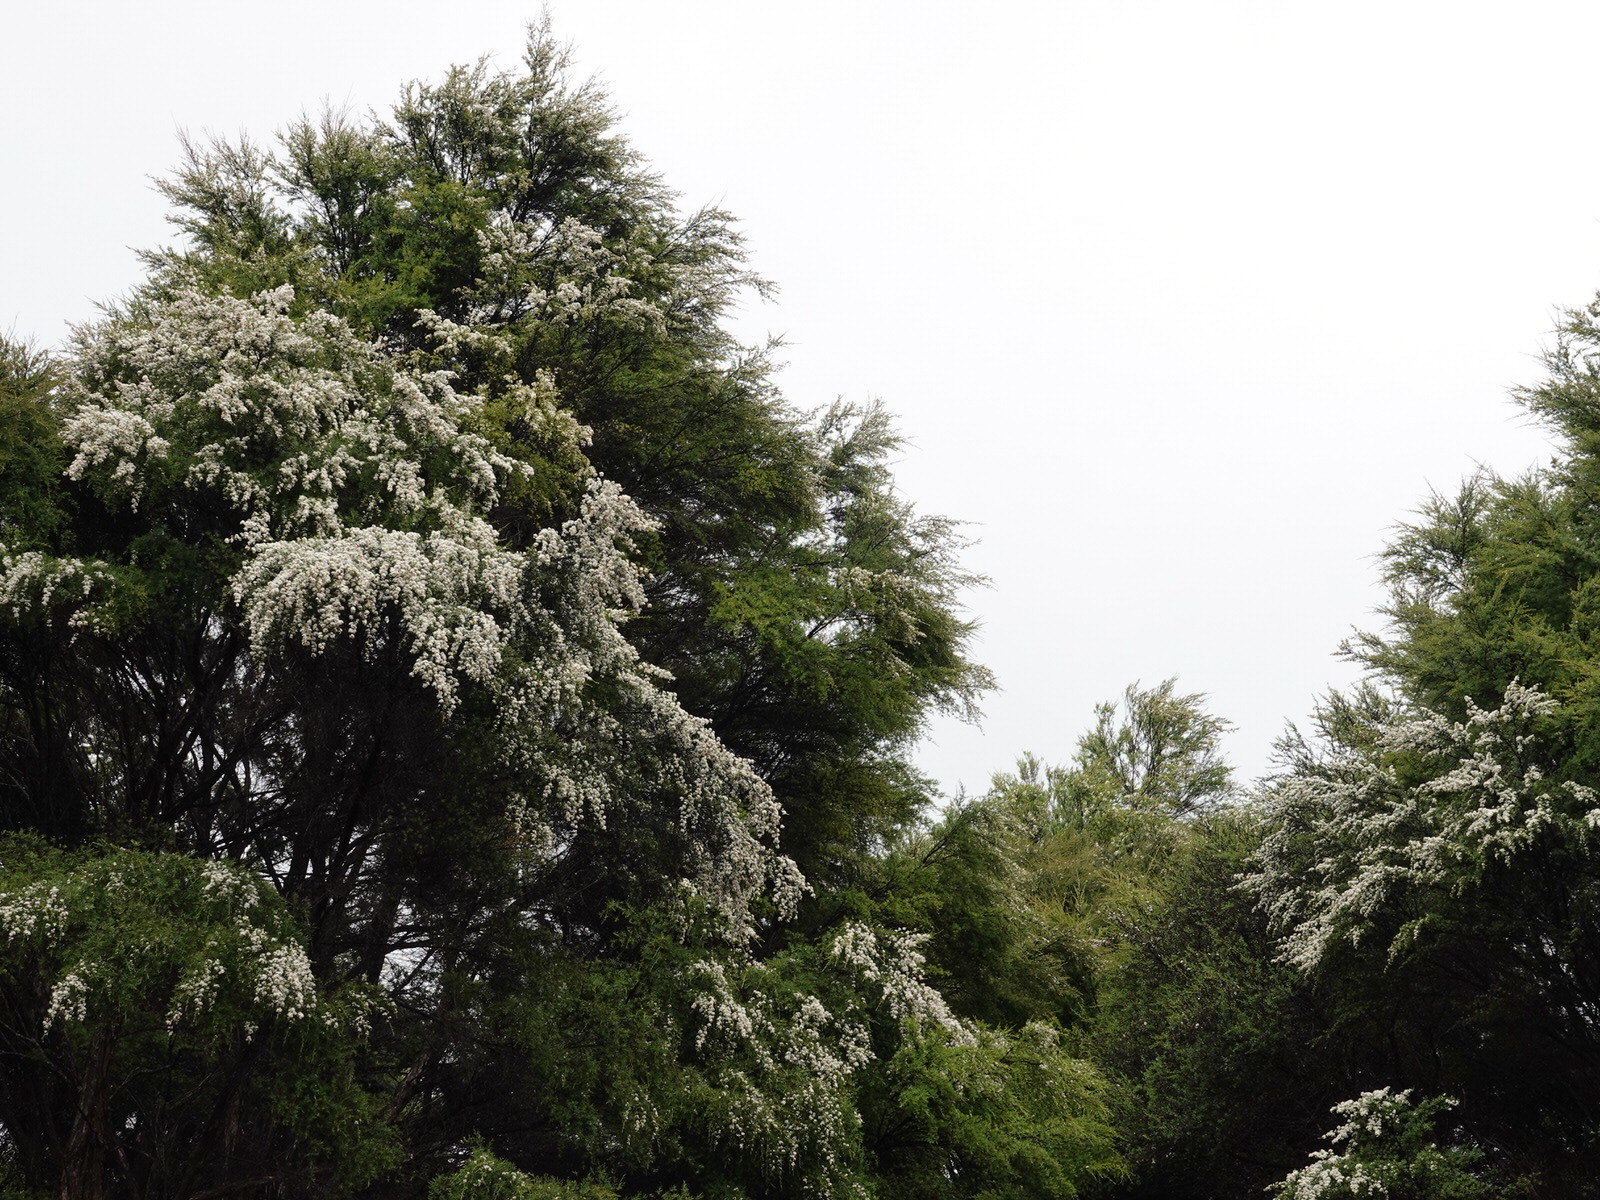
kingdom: Plantae
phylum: Tracheophyta
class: Magnoliopsida
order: Myrtales
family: Myrtaceae
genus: Kunzea
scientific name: Kunzea robusta
